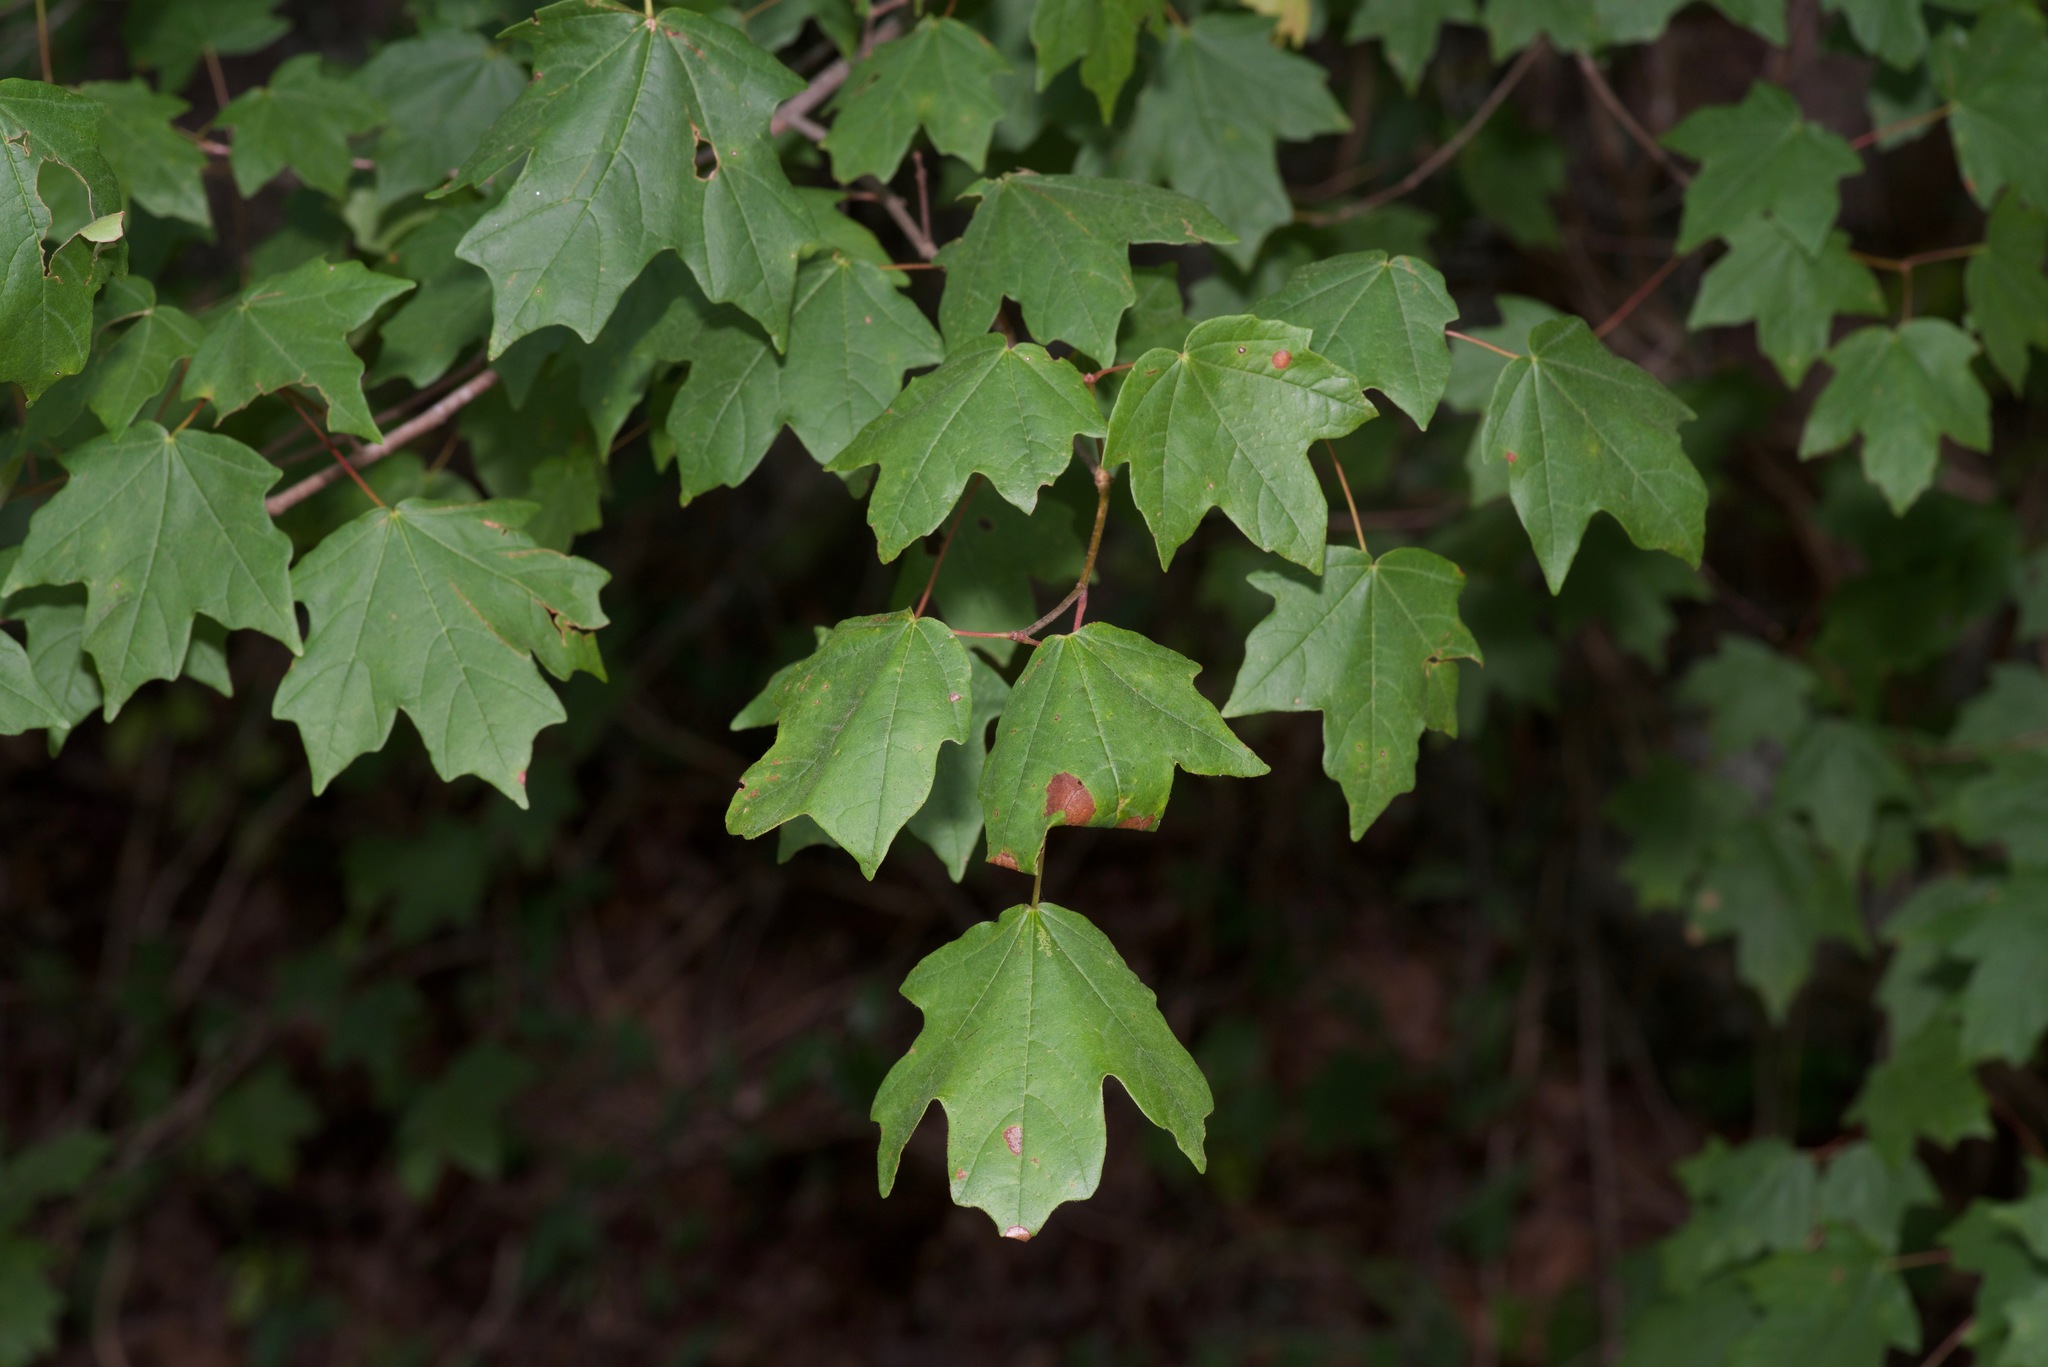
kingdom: Plantae
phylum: Tracheophyta
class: Magnoliopsida
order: Sapindales
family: Sapindaceae
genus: Acer
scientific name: Acer leucoderme
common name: Chalk maple
